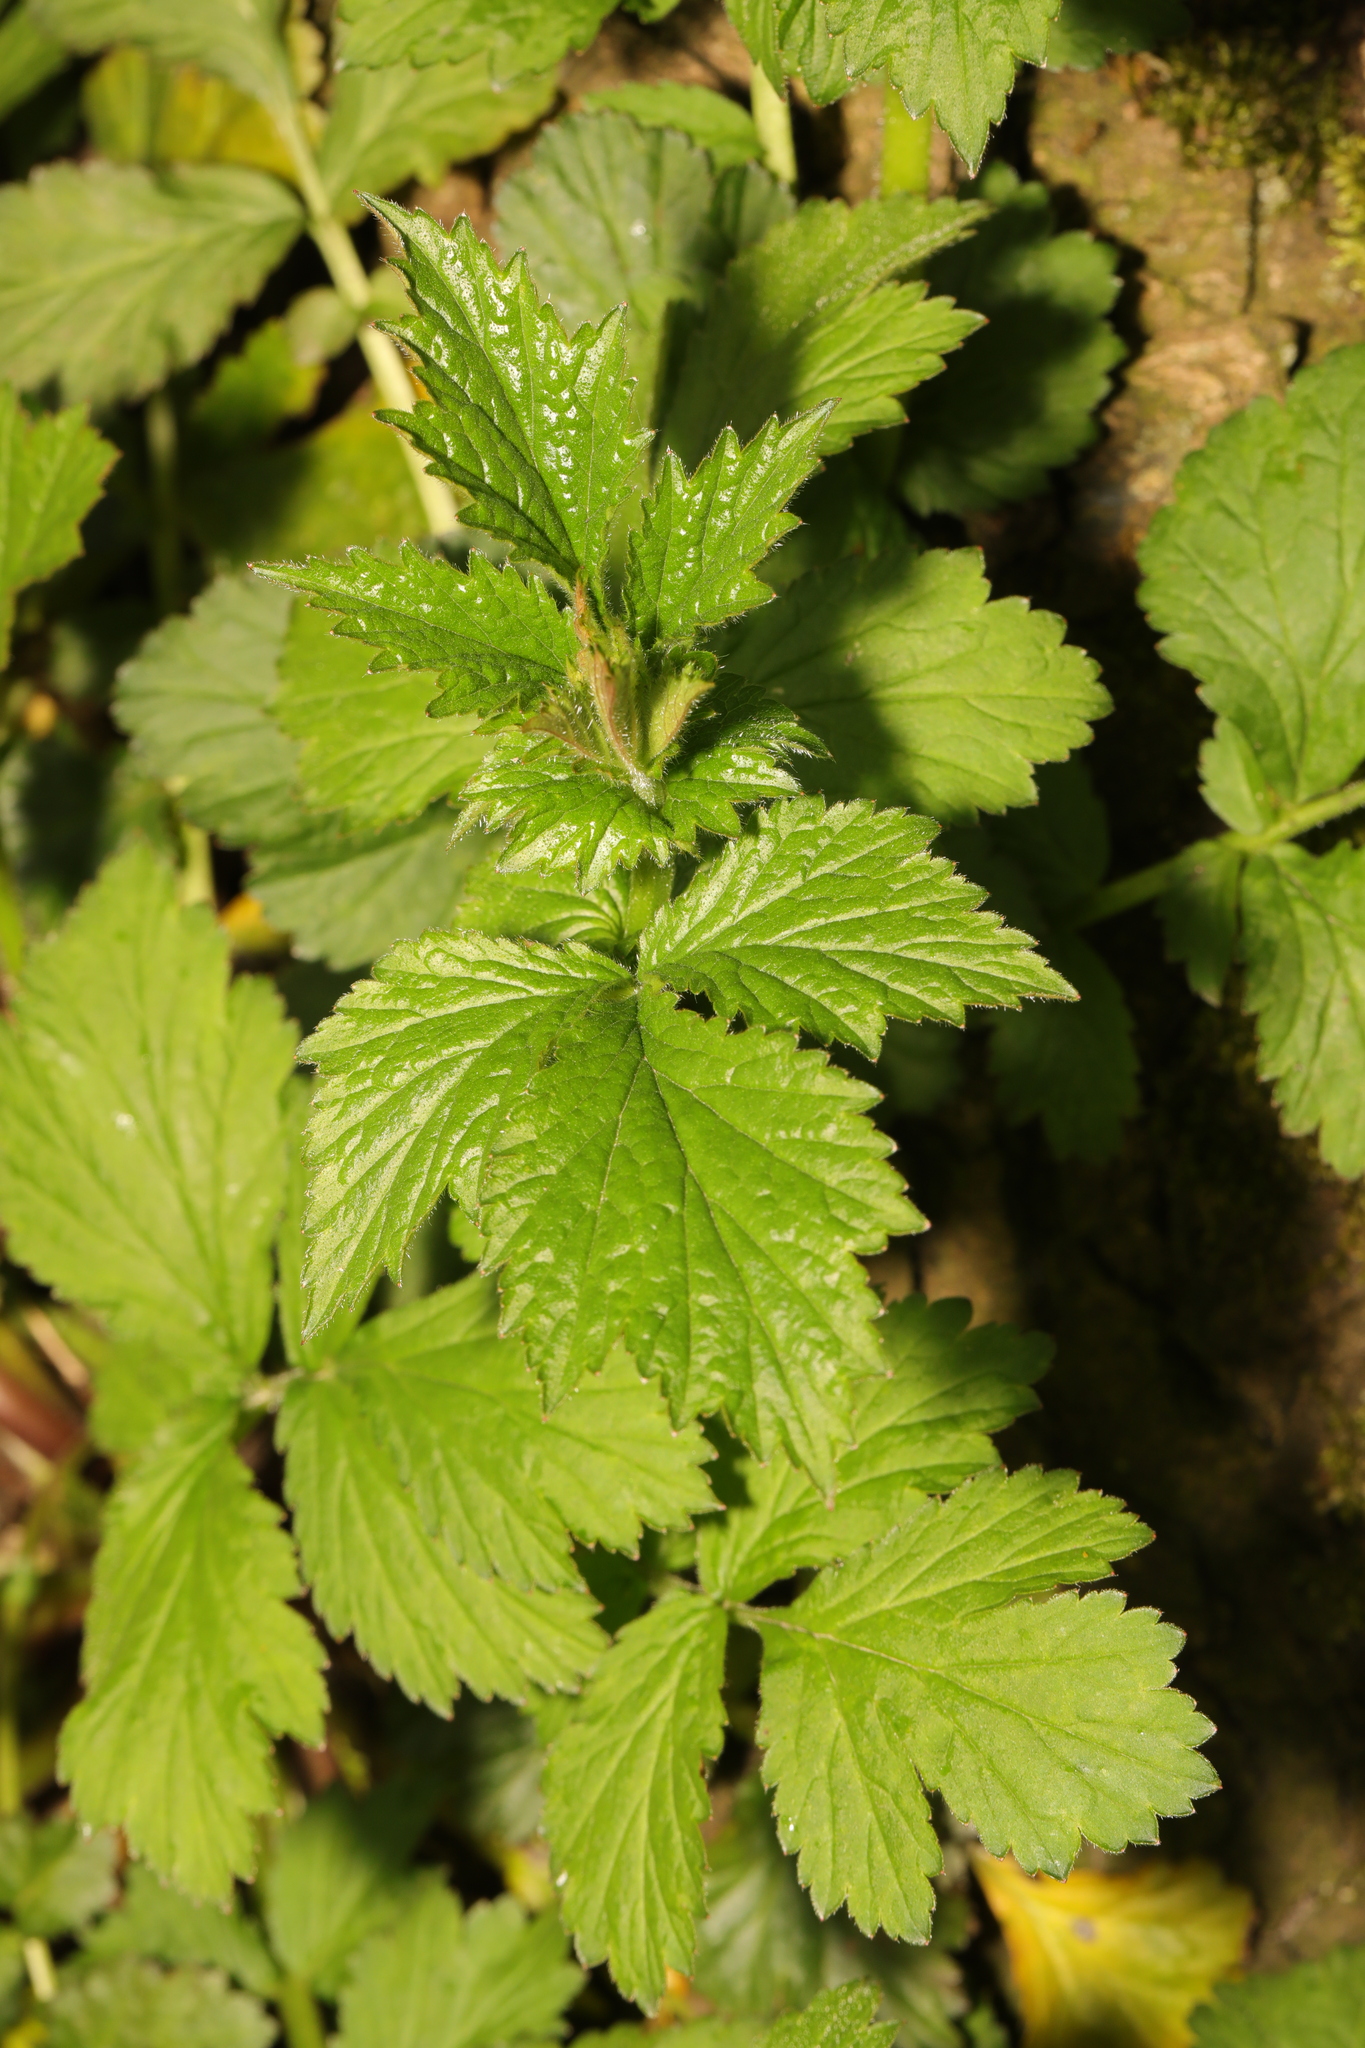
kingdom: Plantae
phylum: Tracheophyta
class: Magnoliopsida
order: Rosales
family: Rosaceae
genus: Geum
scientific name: Geum urbanum
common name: Wood avens
